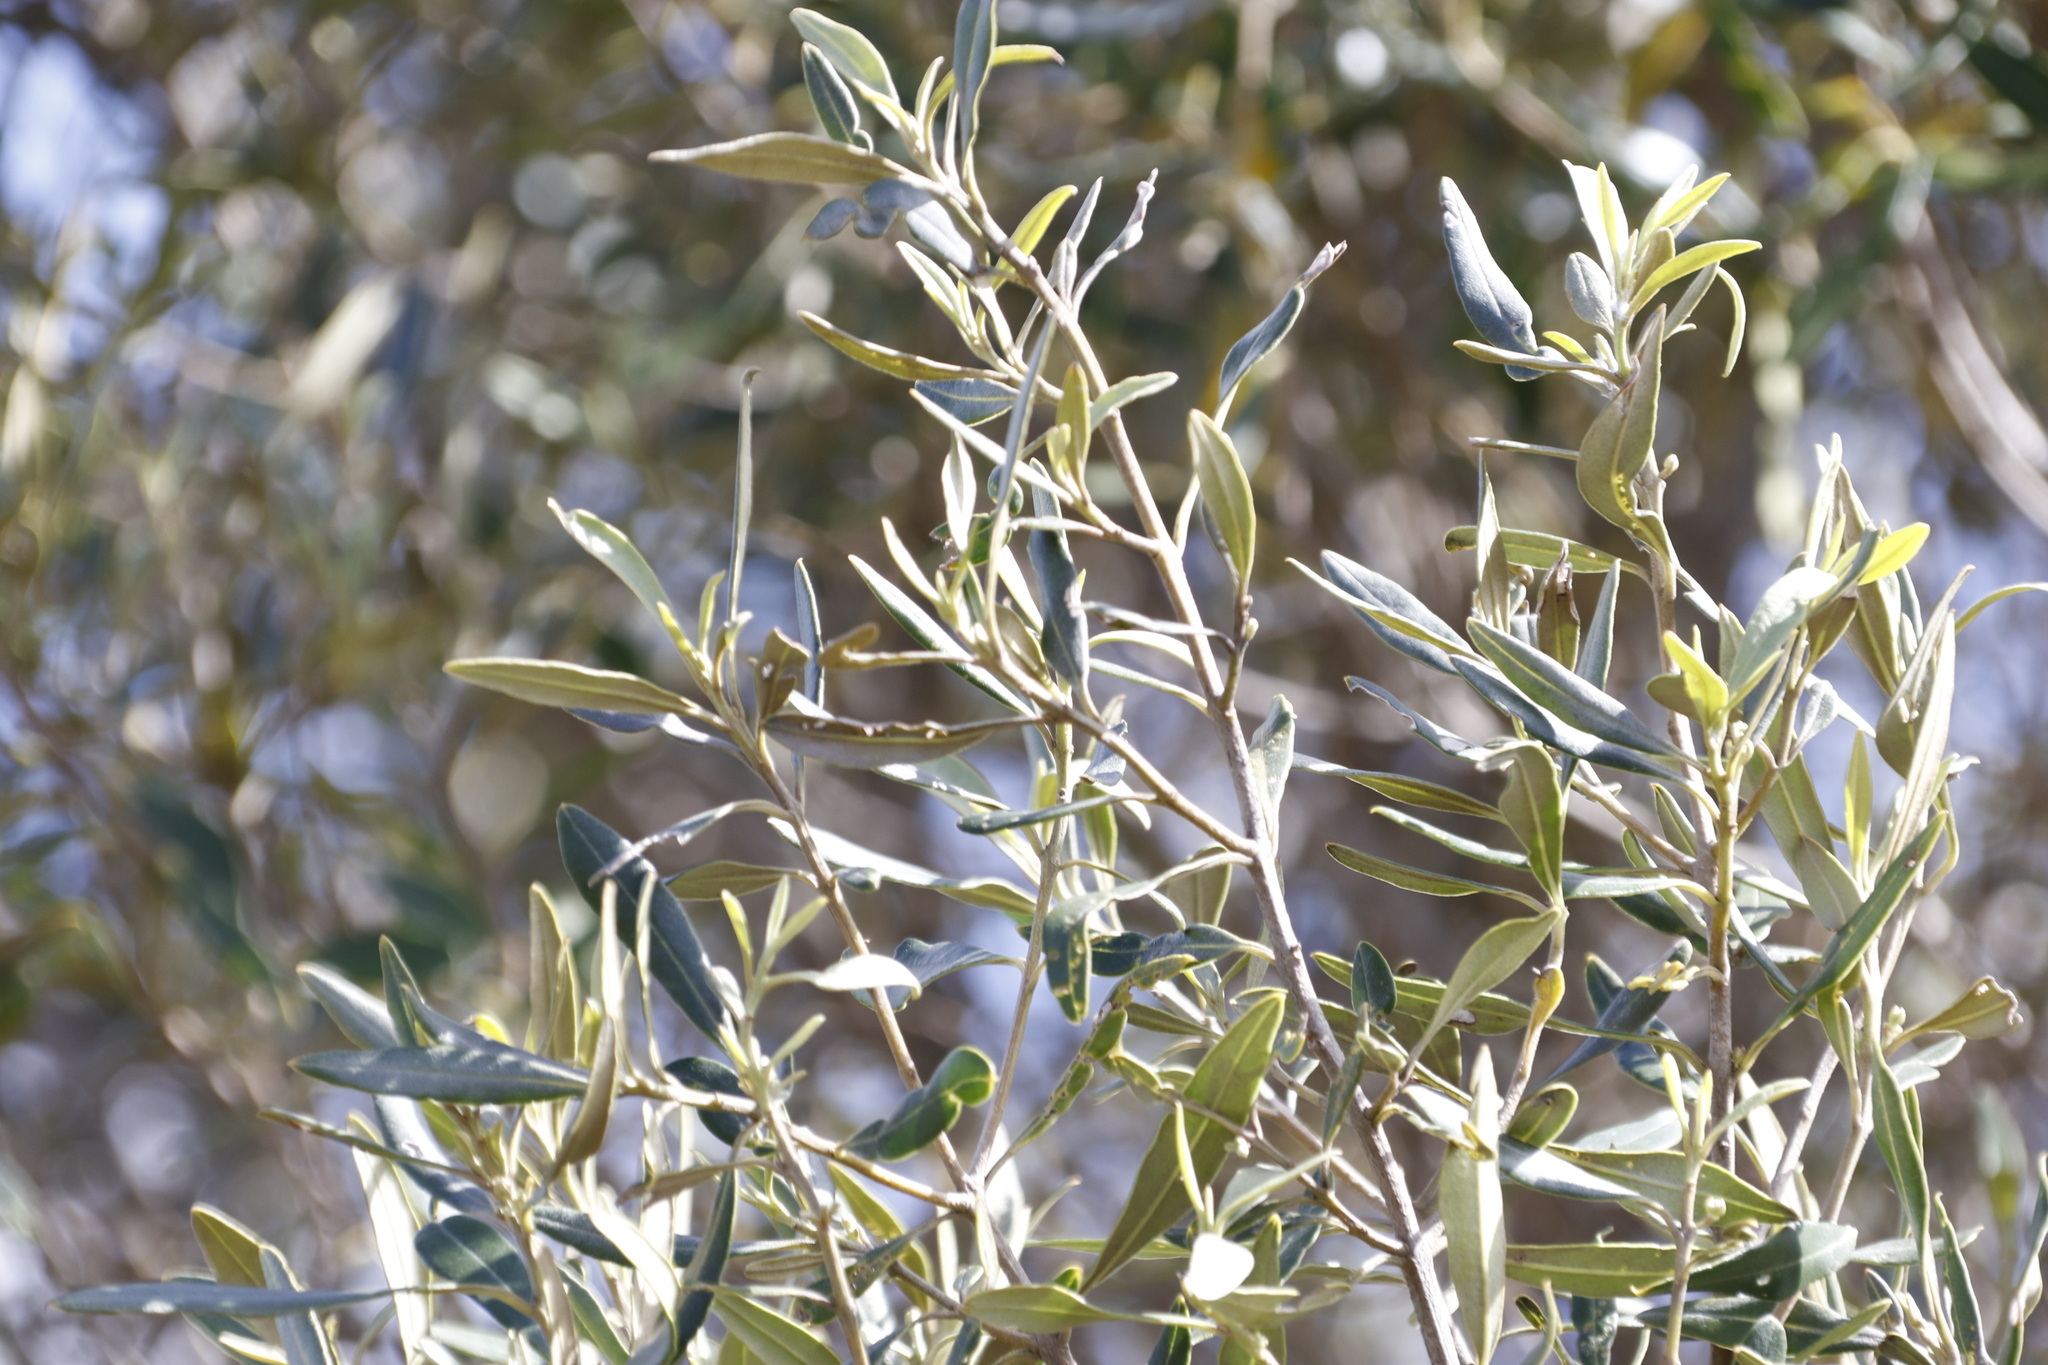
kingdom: Plantae
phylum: Tracheophyta
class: Magnoliopsida
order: Lamiales
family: Oleaceae
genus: Olea
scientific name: Olea europaea
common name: Olive
